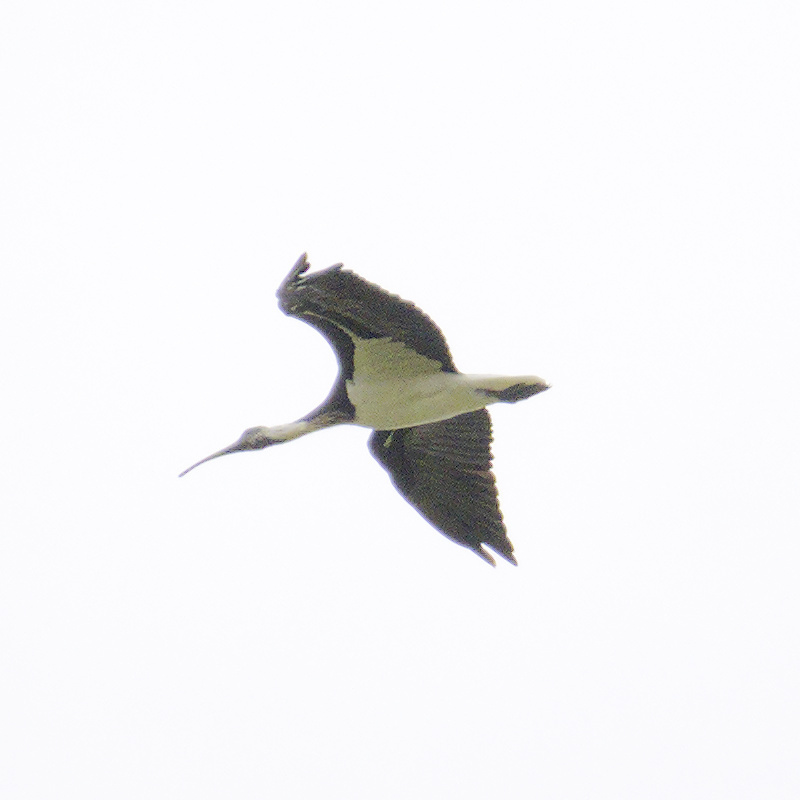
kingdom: Animalia
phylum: Chordata
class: Aves
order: Pelecaniformes
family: Threskiornithidae
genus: Threskiornis
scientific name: Threskiornis spinicollis
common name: Straw-necked ibis
